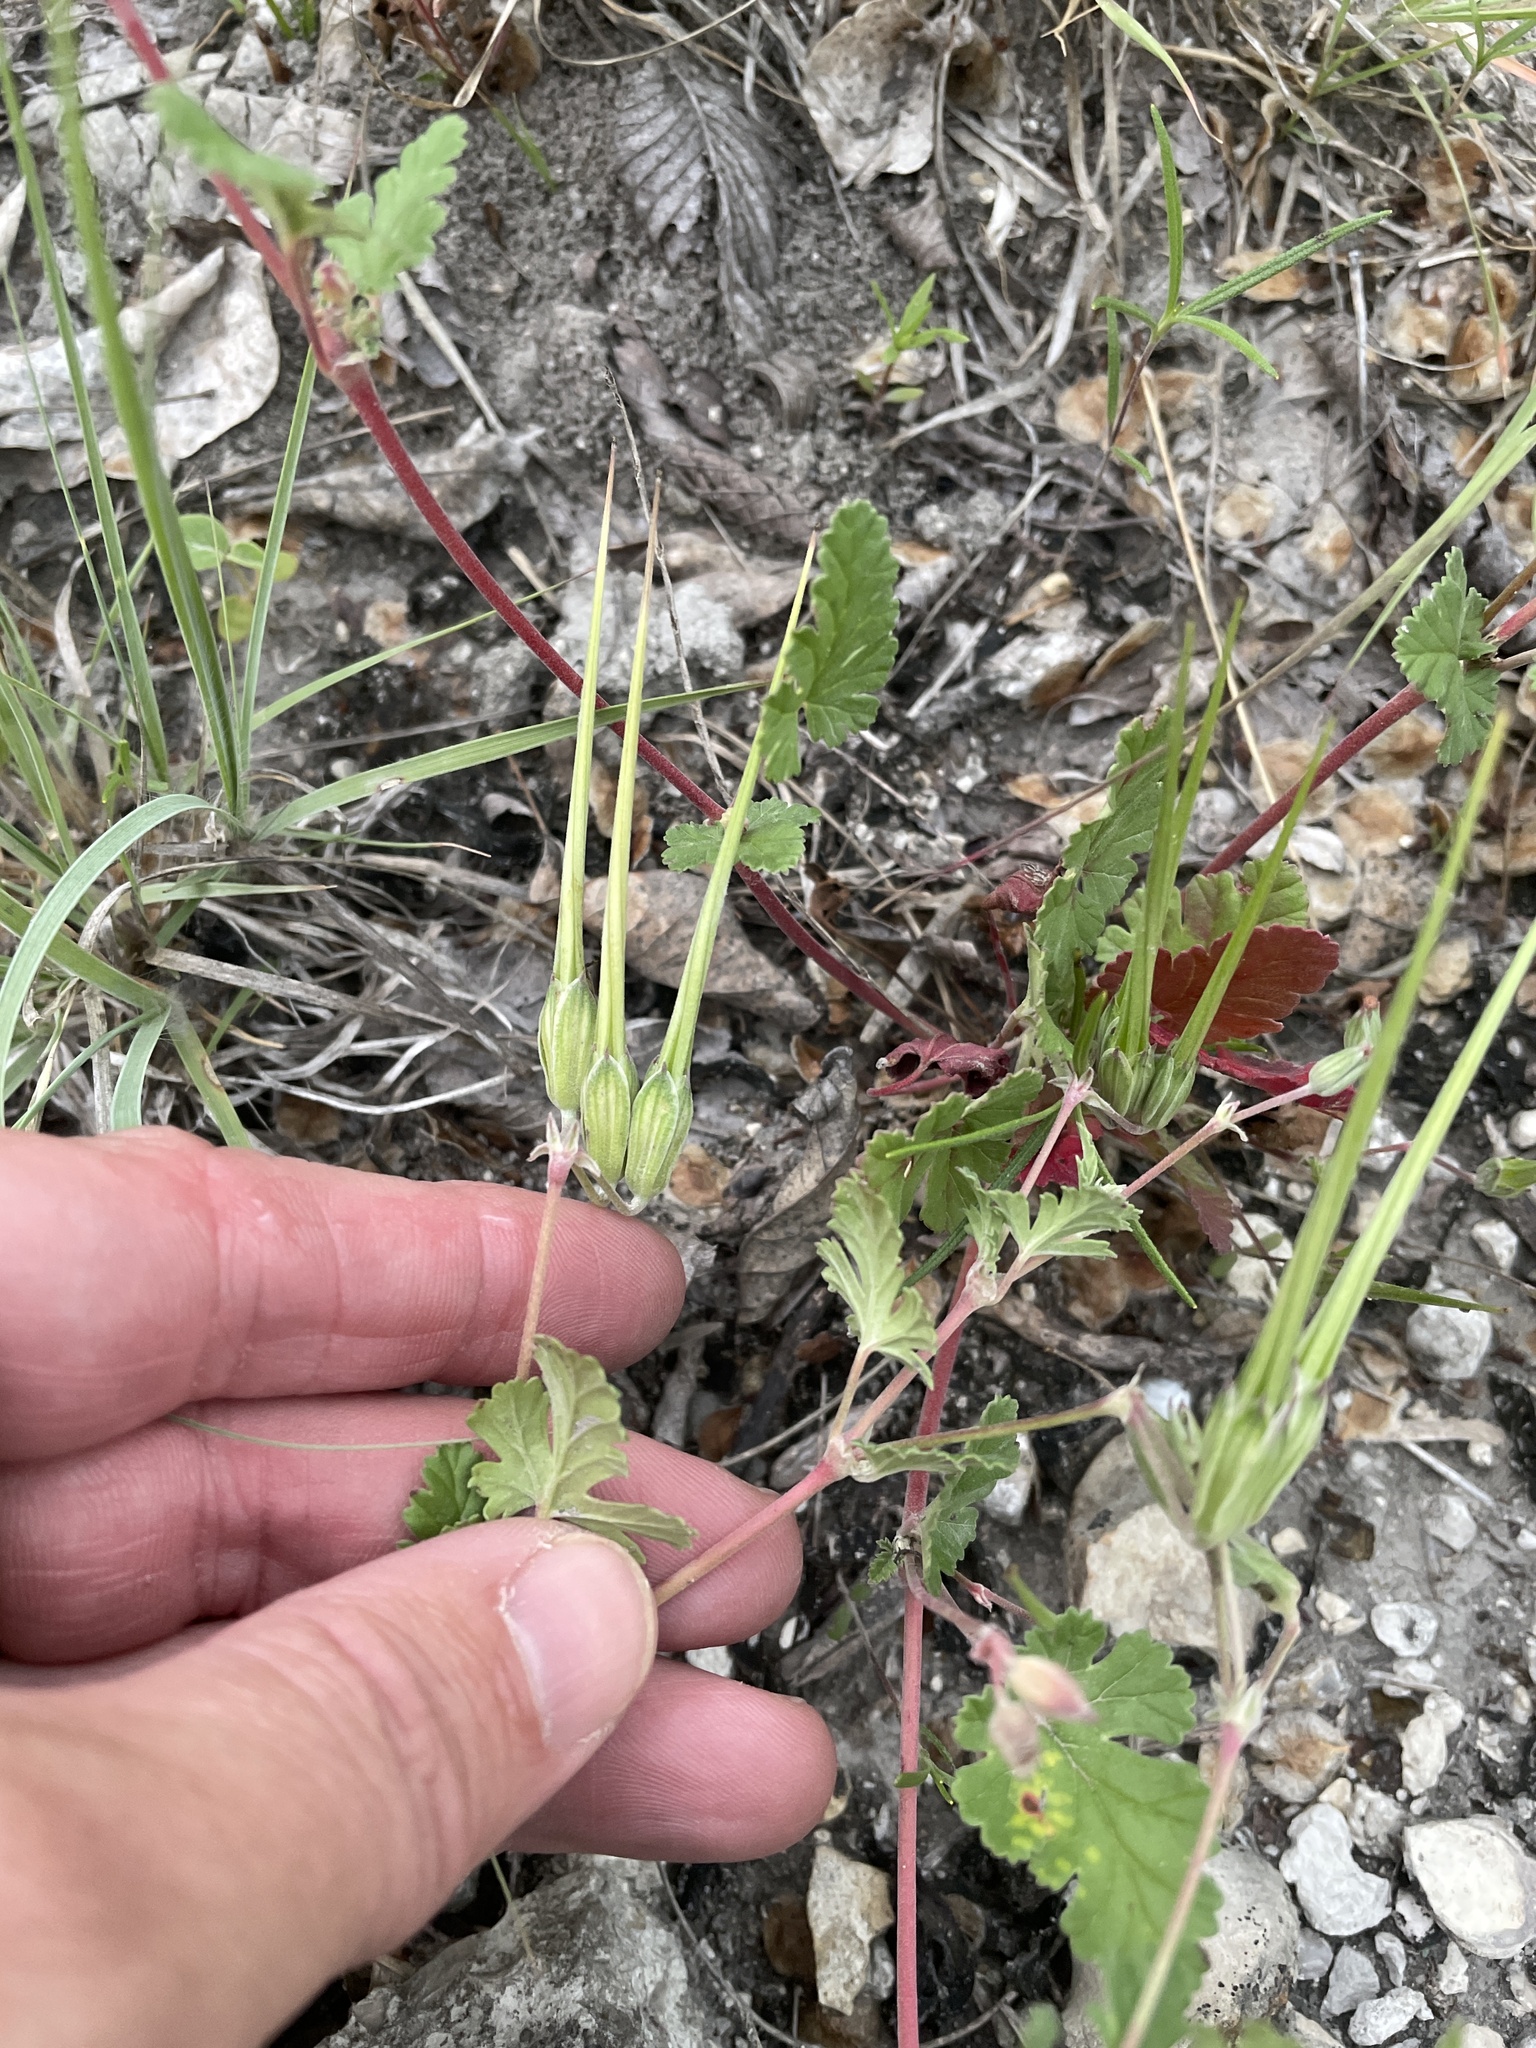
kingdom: Plantae
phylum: Tracheophyta
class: Magnoliopsida
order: Geraniales
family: Geraniaceae
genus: Erodium
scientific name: Erodium texanum
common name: Texas stork's-bill
